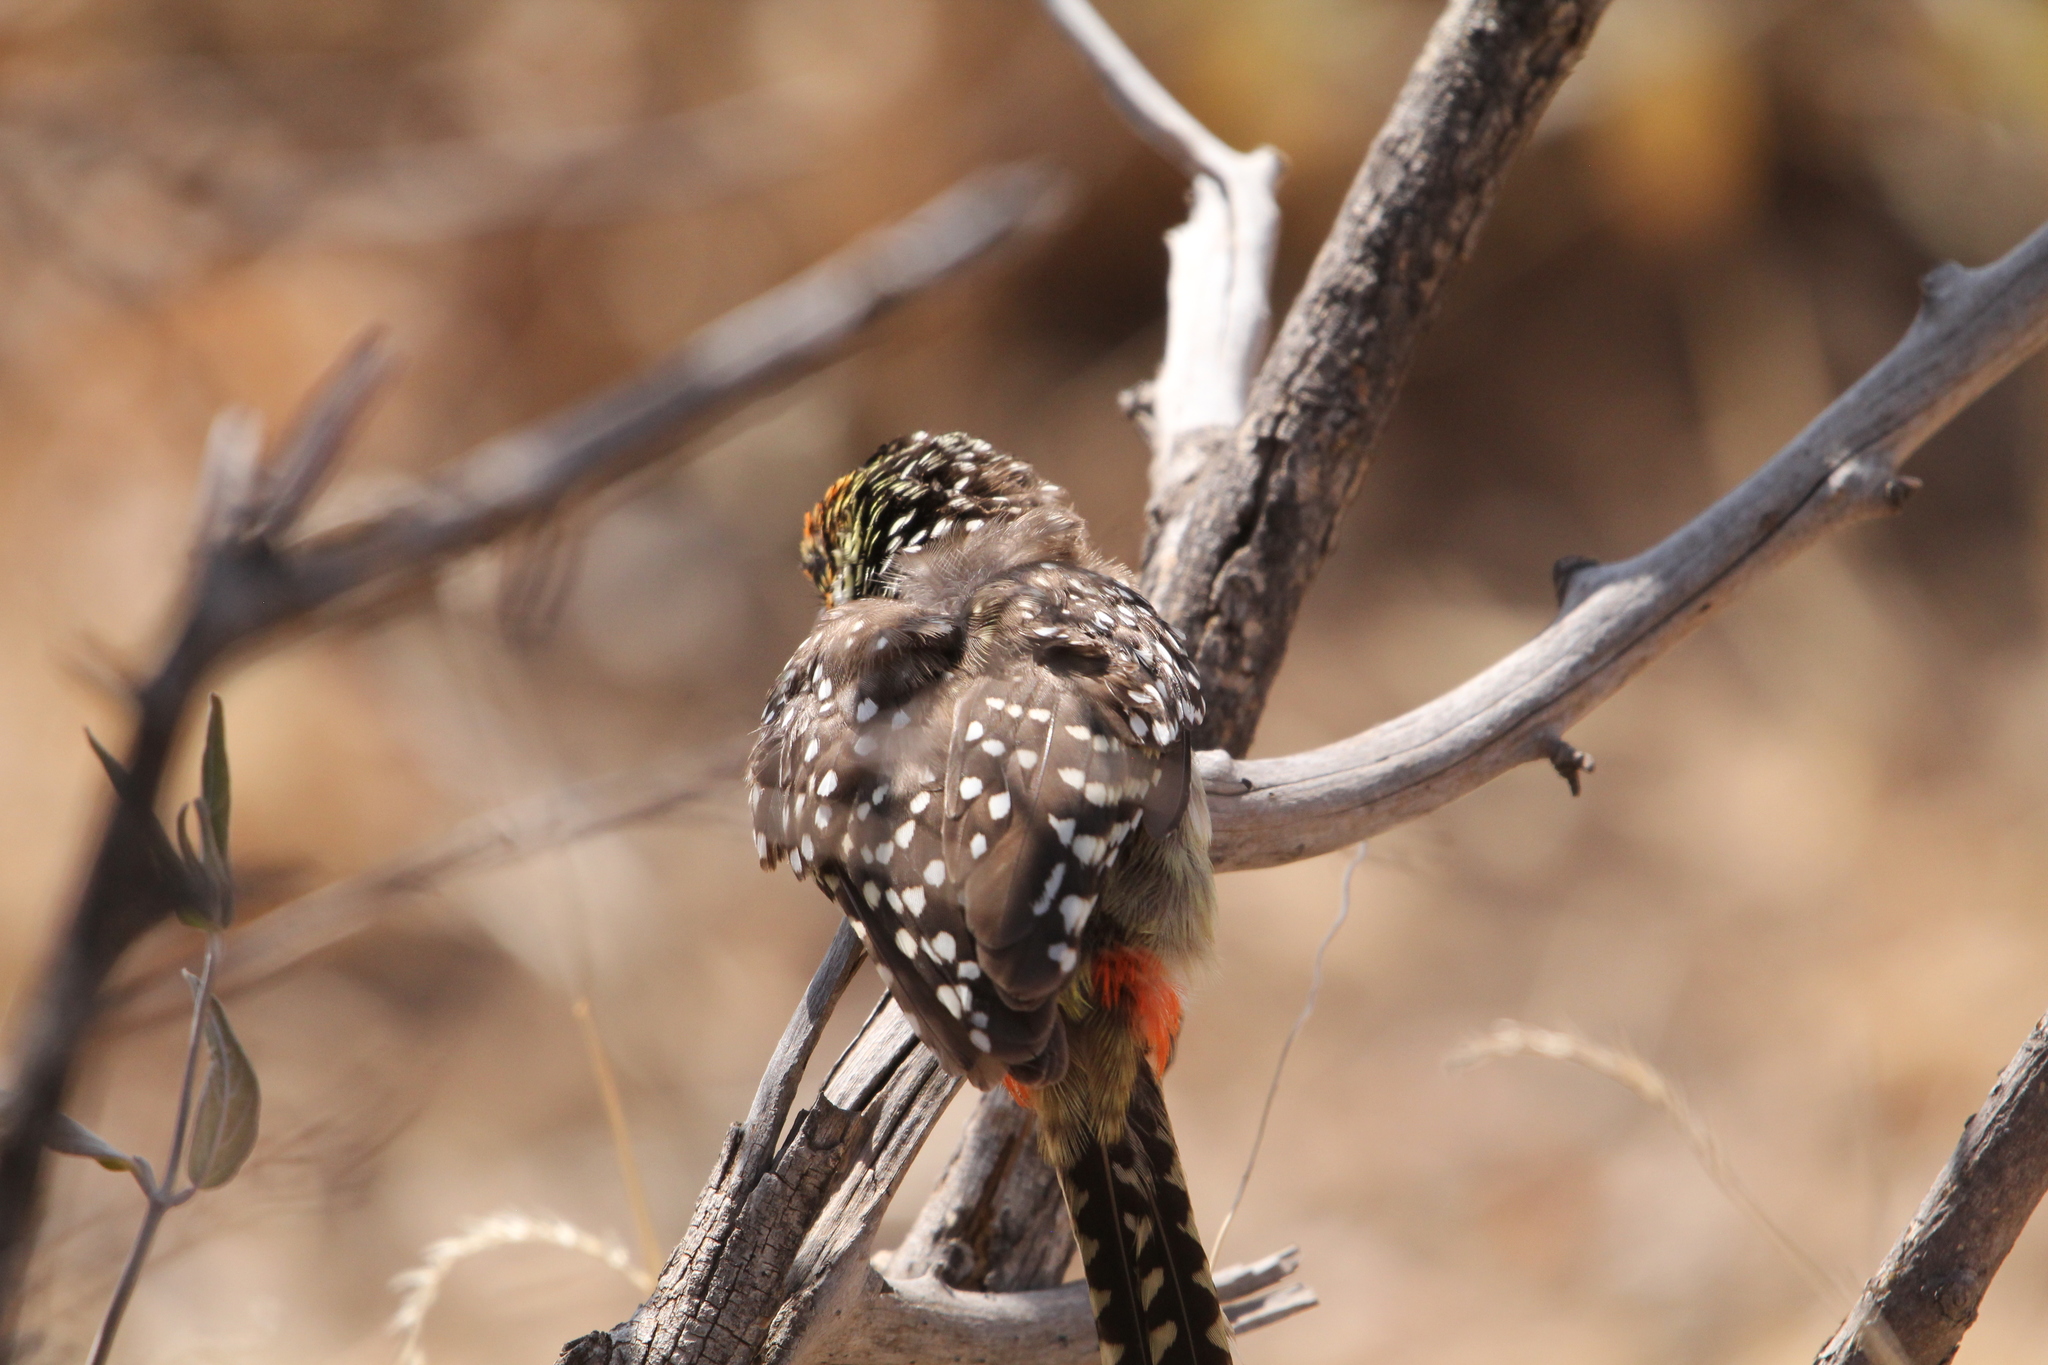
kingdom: Animalia
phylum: Chordata
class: Aves
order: Piciformes
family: Lybiidae
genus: Trachyphonus
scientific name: Trachyphonus darnaudii
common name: D'arnaud's barbet
